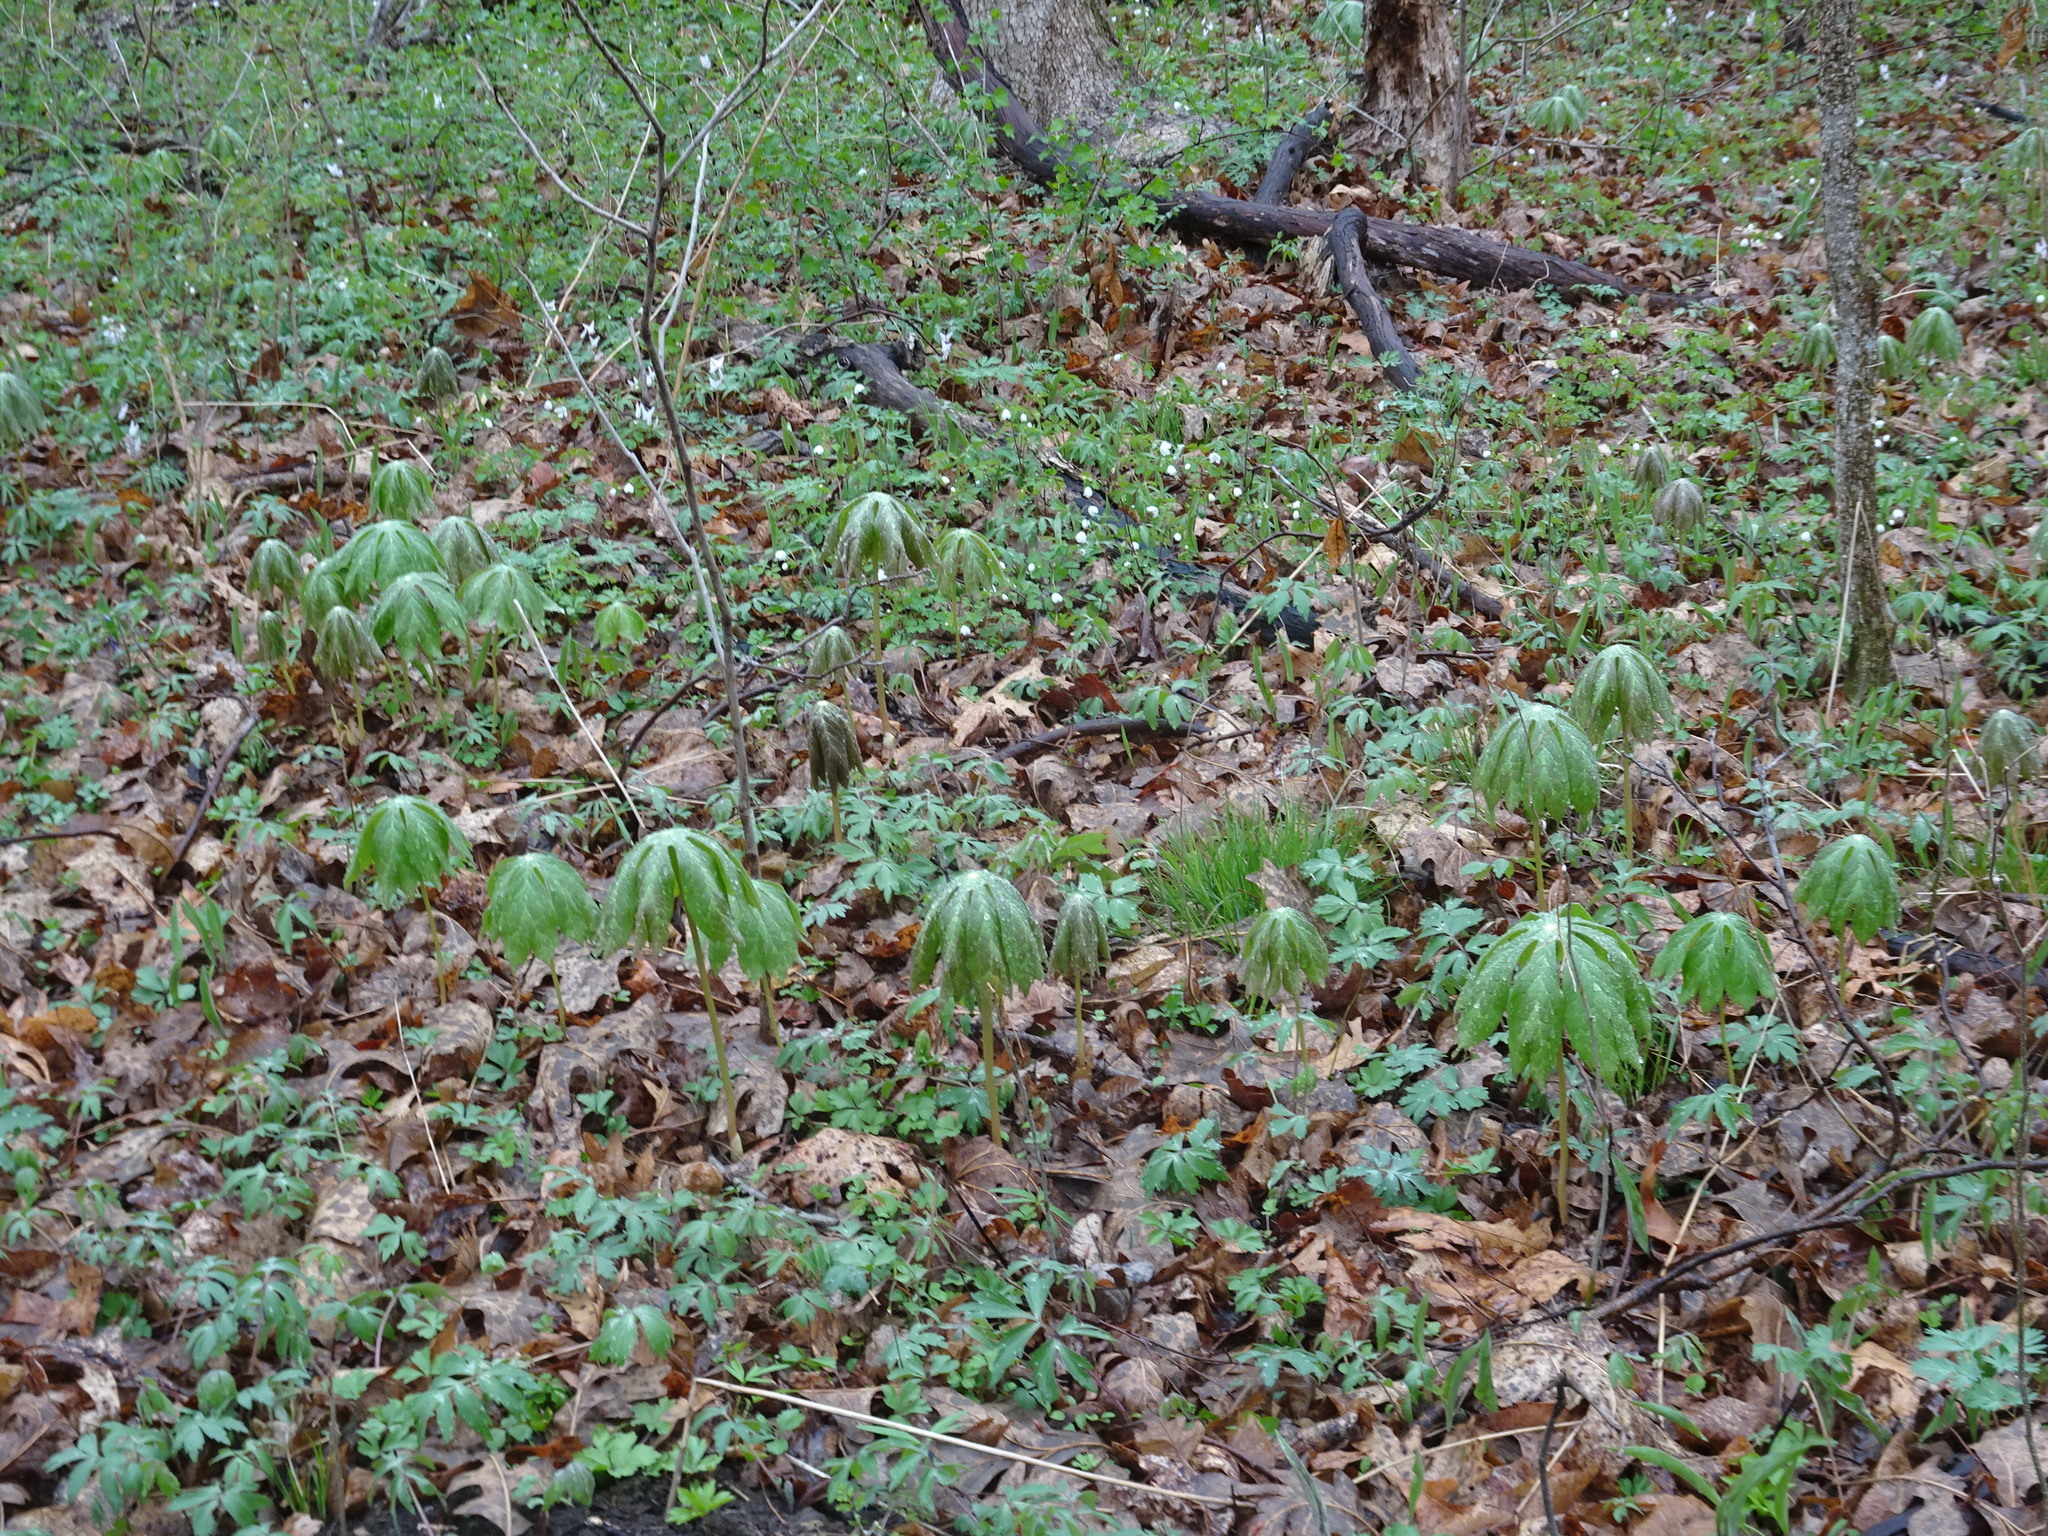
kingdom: Plantae
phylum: Tracheophyta
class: Magnoliopsida
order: Ranunculales
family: Berberidaceae
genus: Podophyllum
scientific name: Podophyllum peltatum
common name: Wild mandrake
